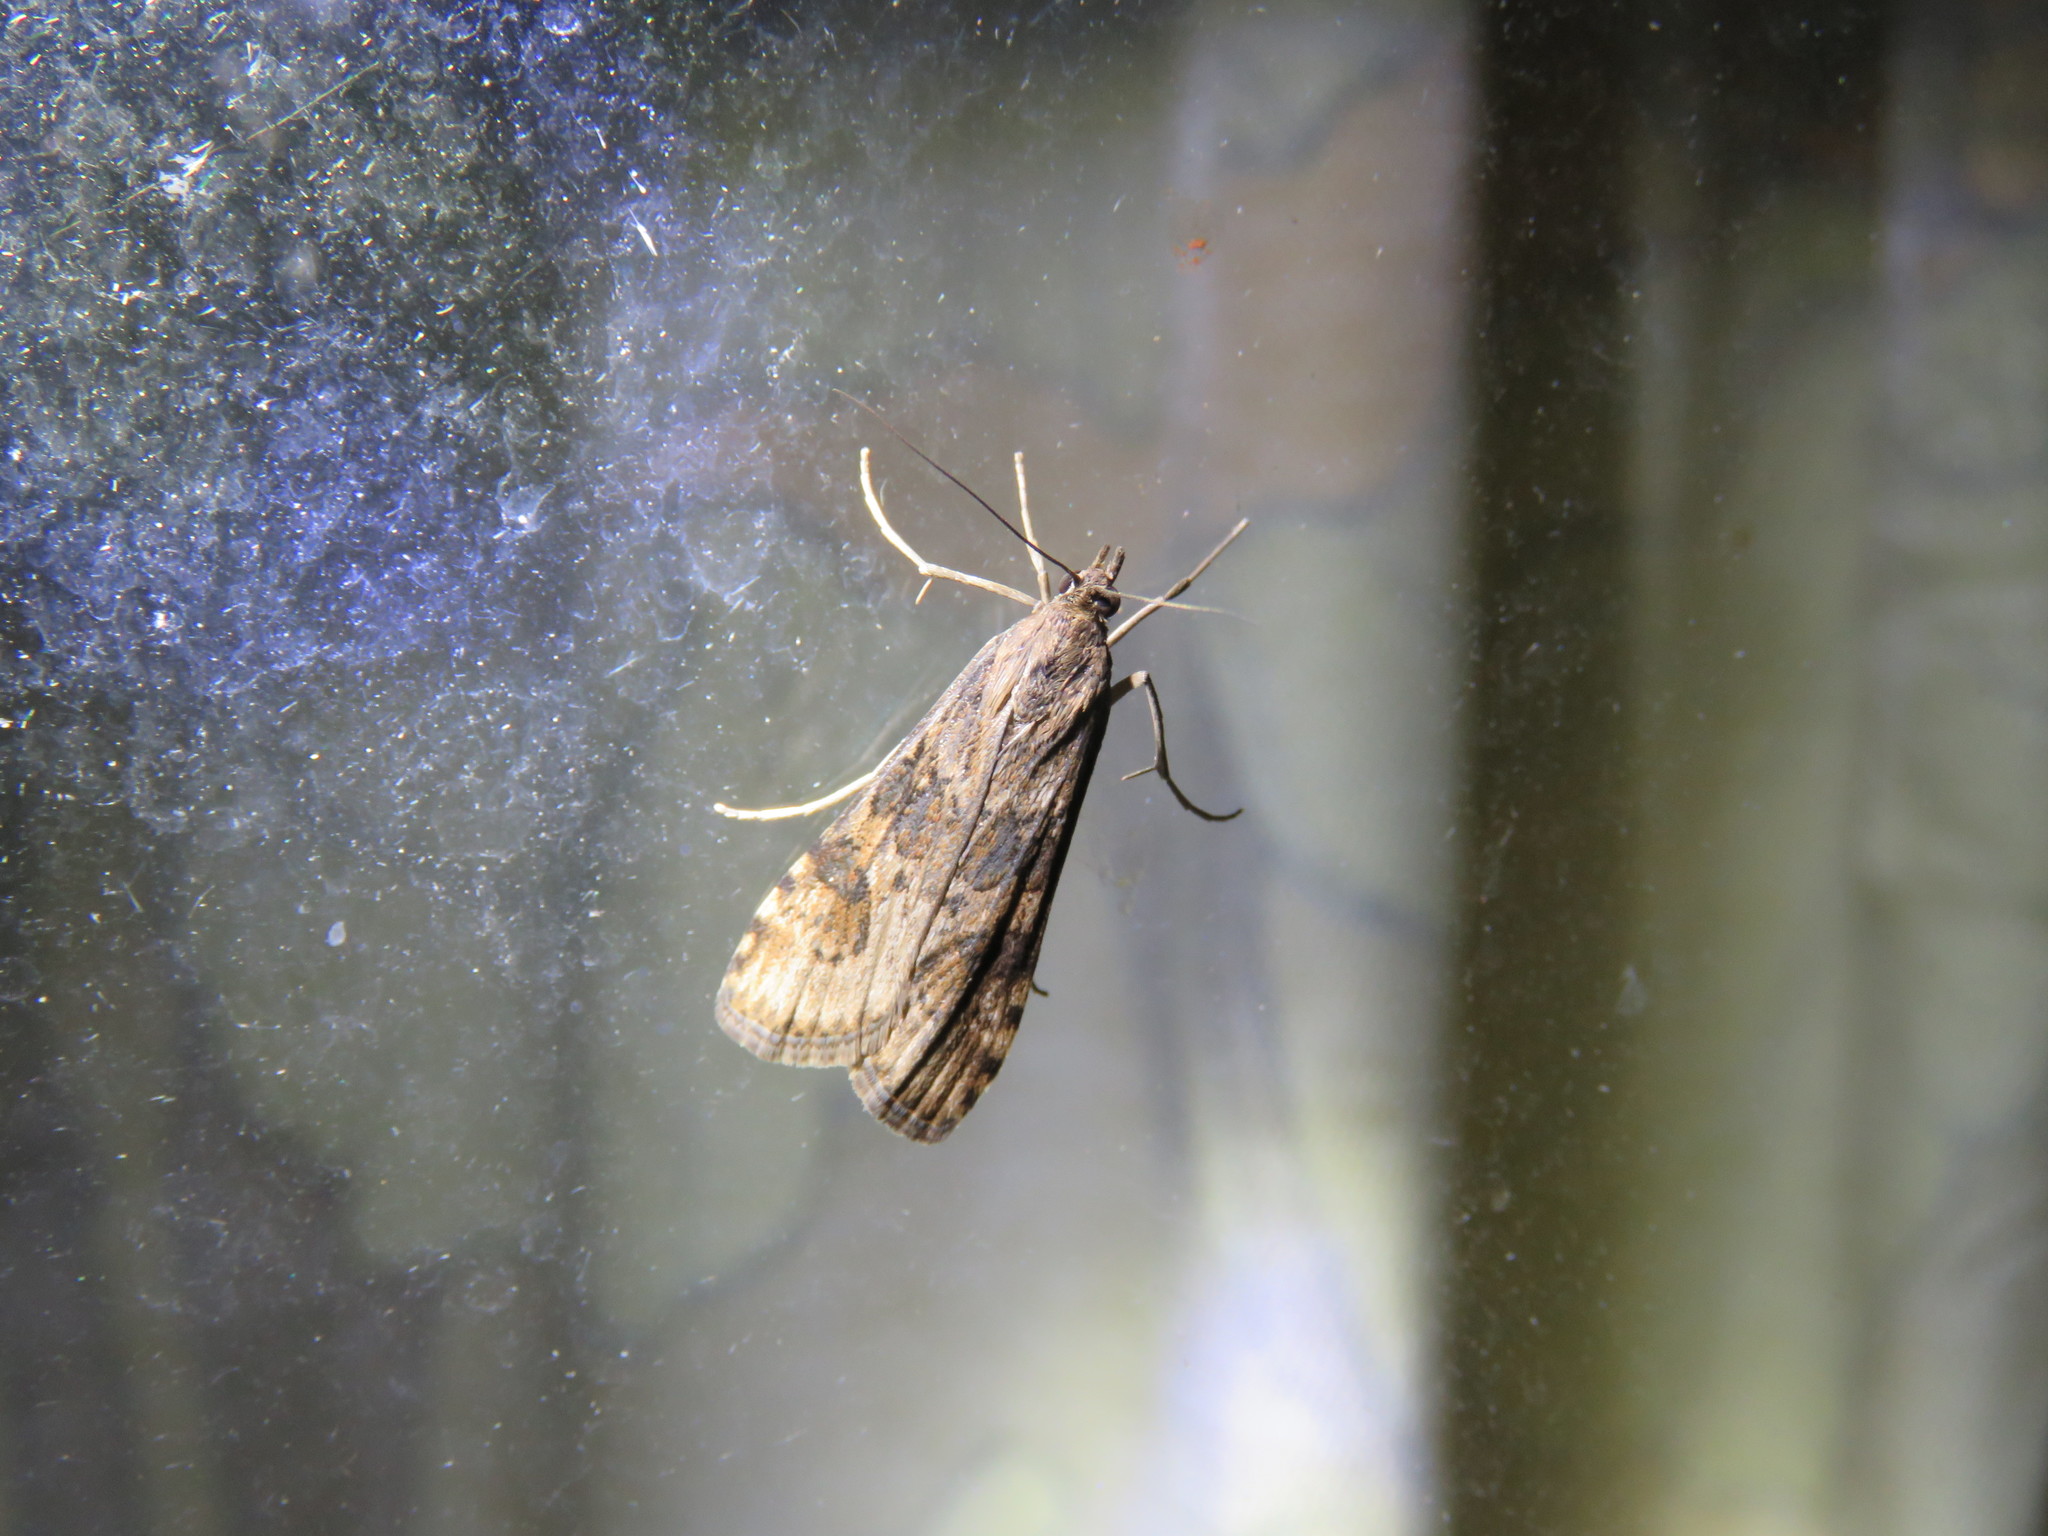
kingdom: Animalia
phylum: Arthropoda
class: Insecta
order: Lepidoptera
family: Crambidae
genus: Nomophila
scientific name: Nomophila nearctica
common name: American rush veneer
